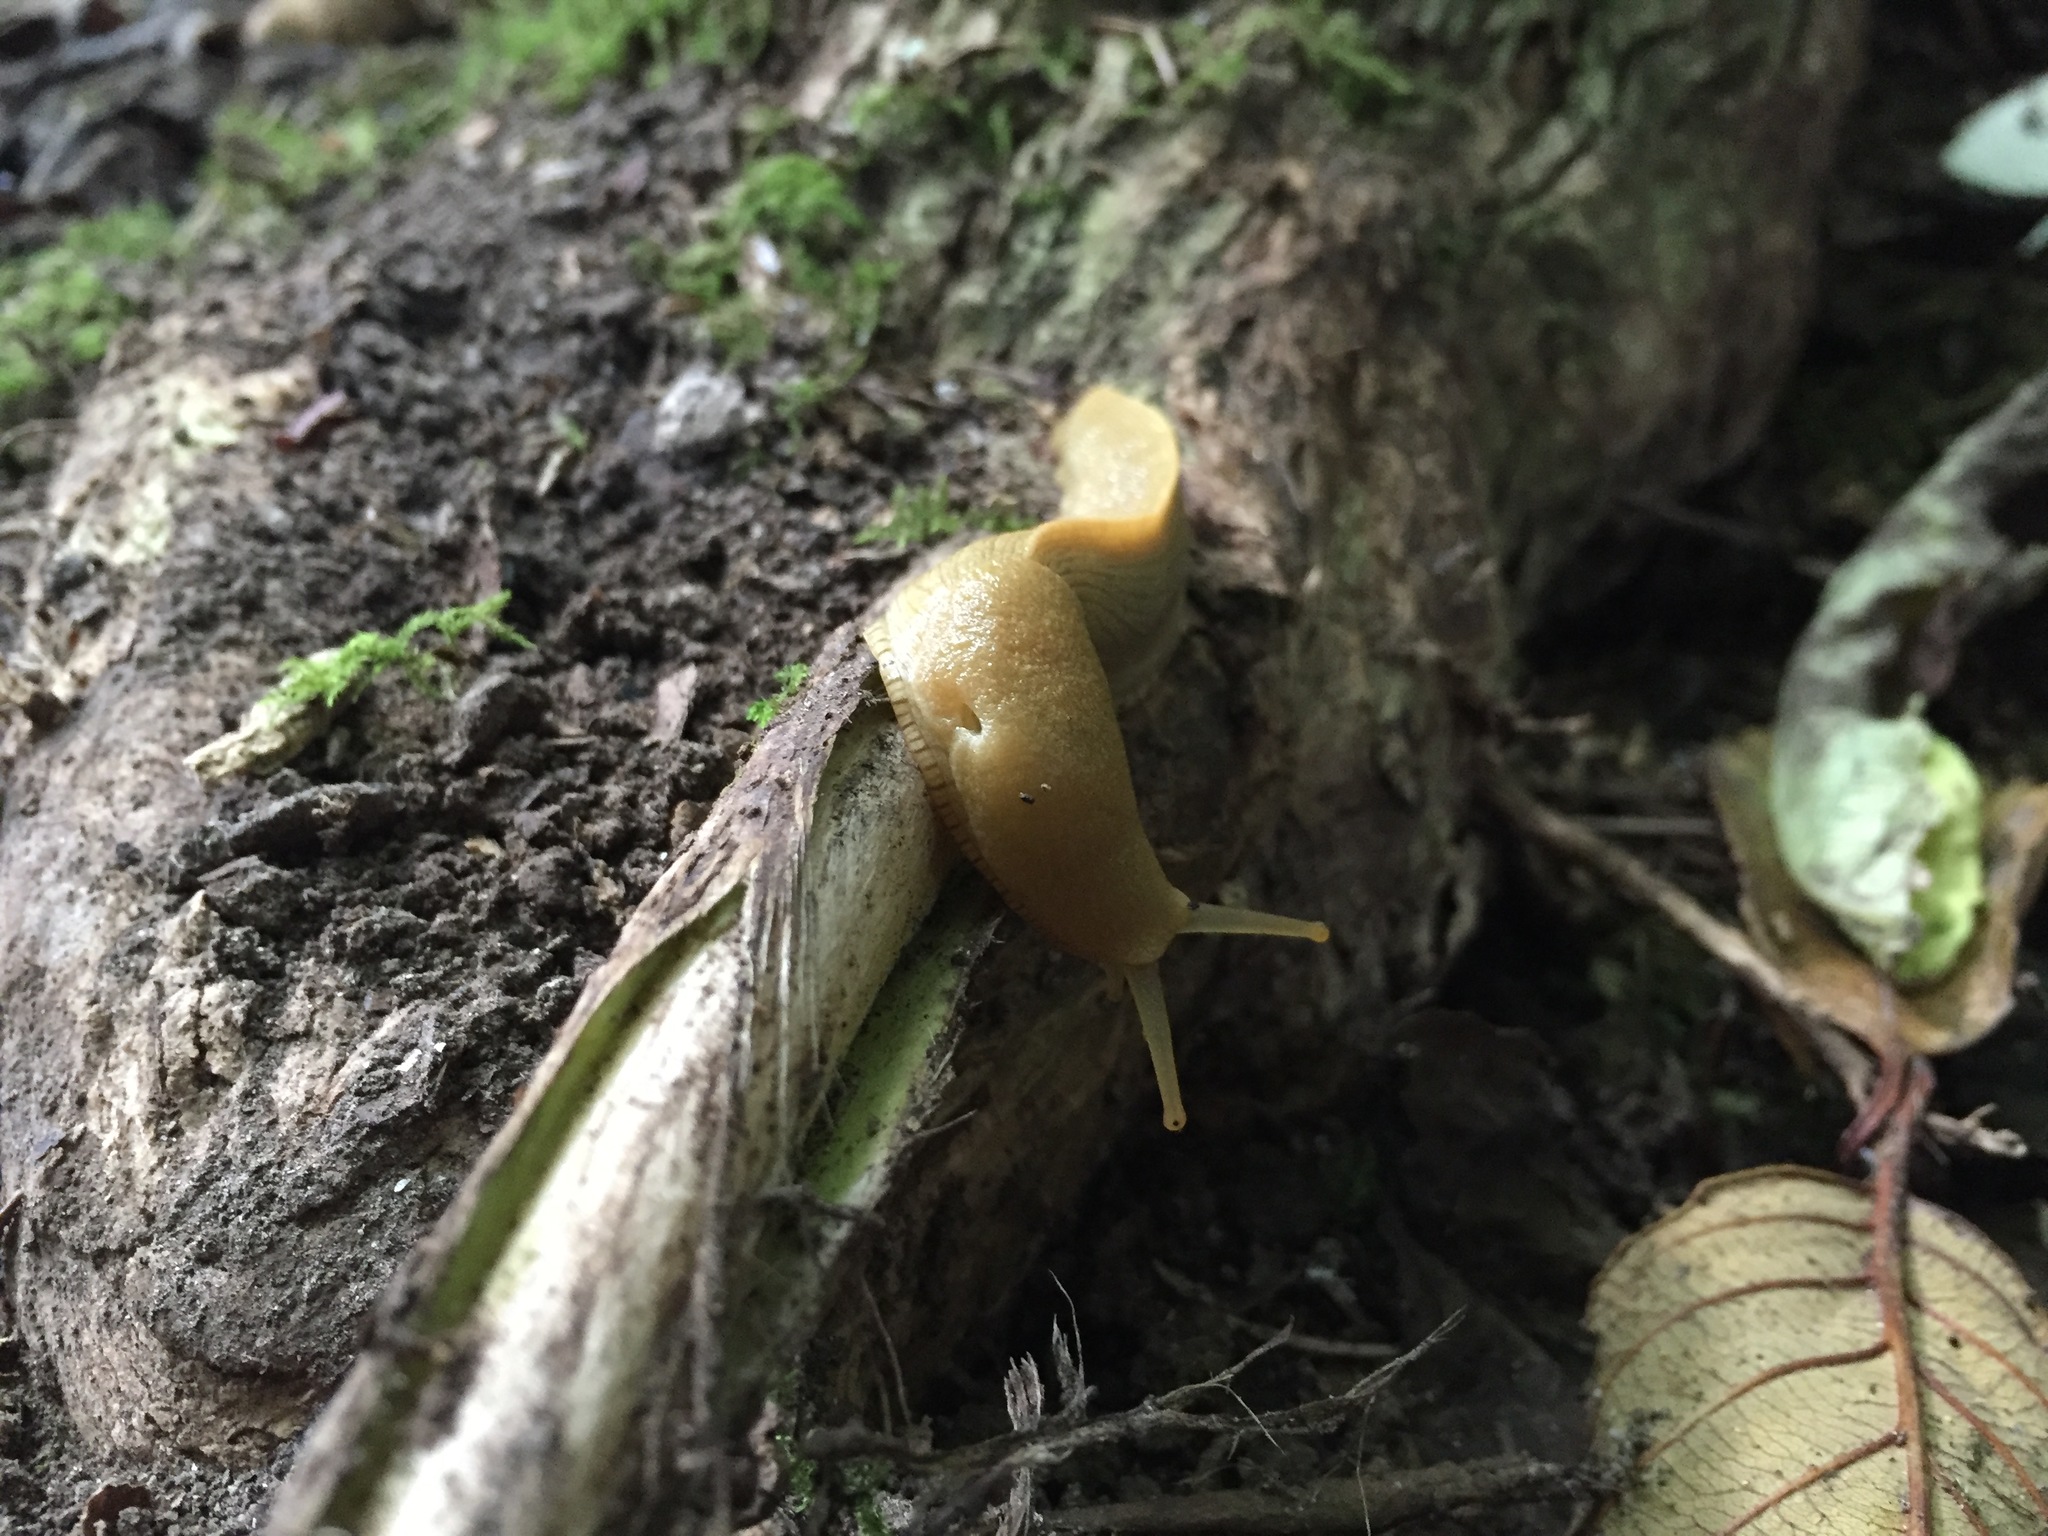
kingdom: Animalia
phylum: Mollusca
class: Gastropoda
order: Stylommatophora
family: Ariolimacidae
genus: Ariolimax
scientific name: Ariolimax columbianus
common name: Pacific banana slug
